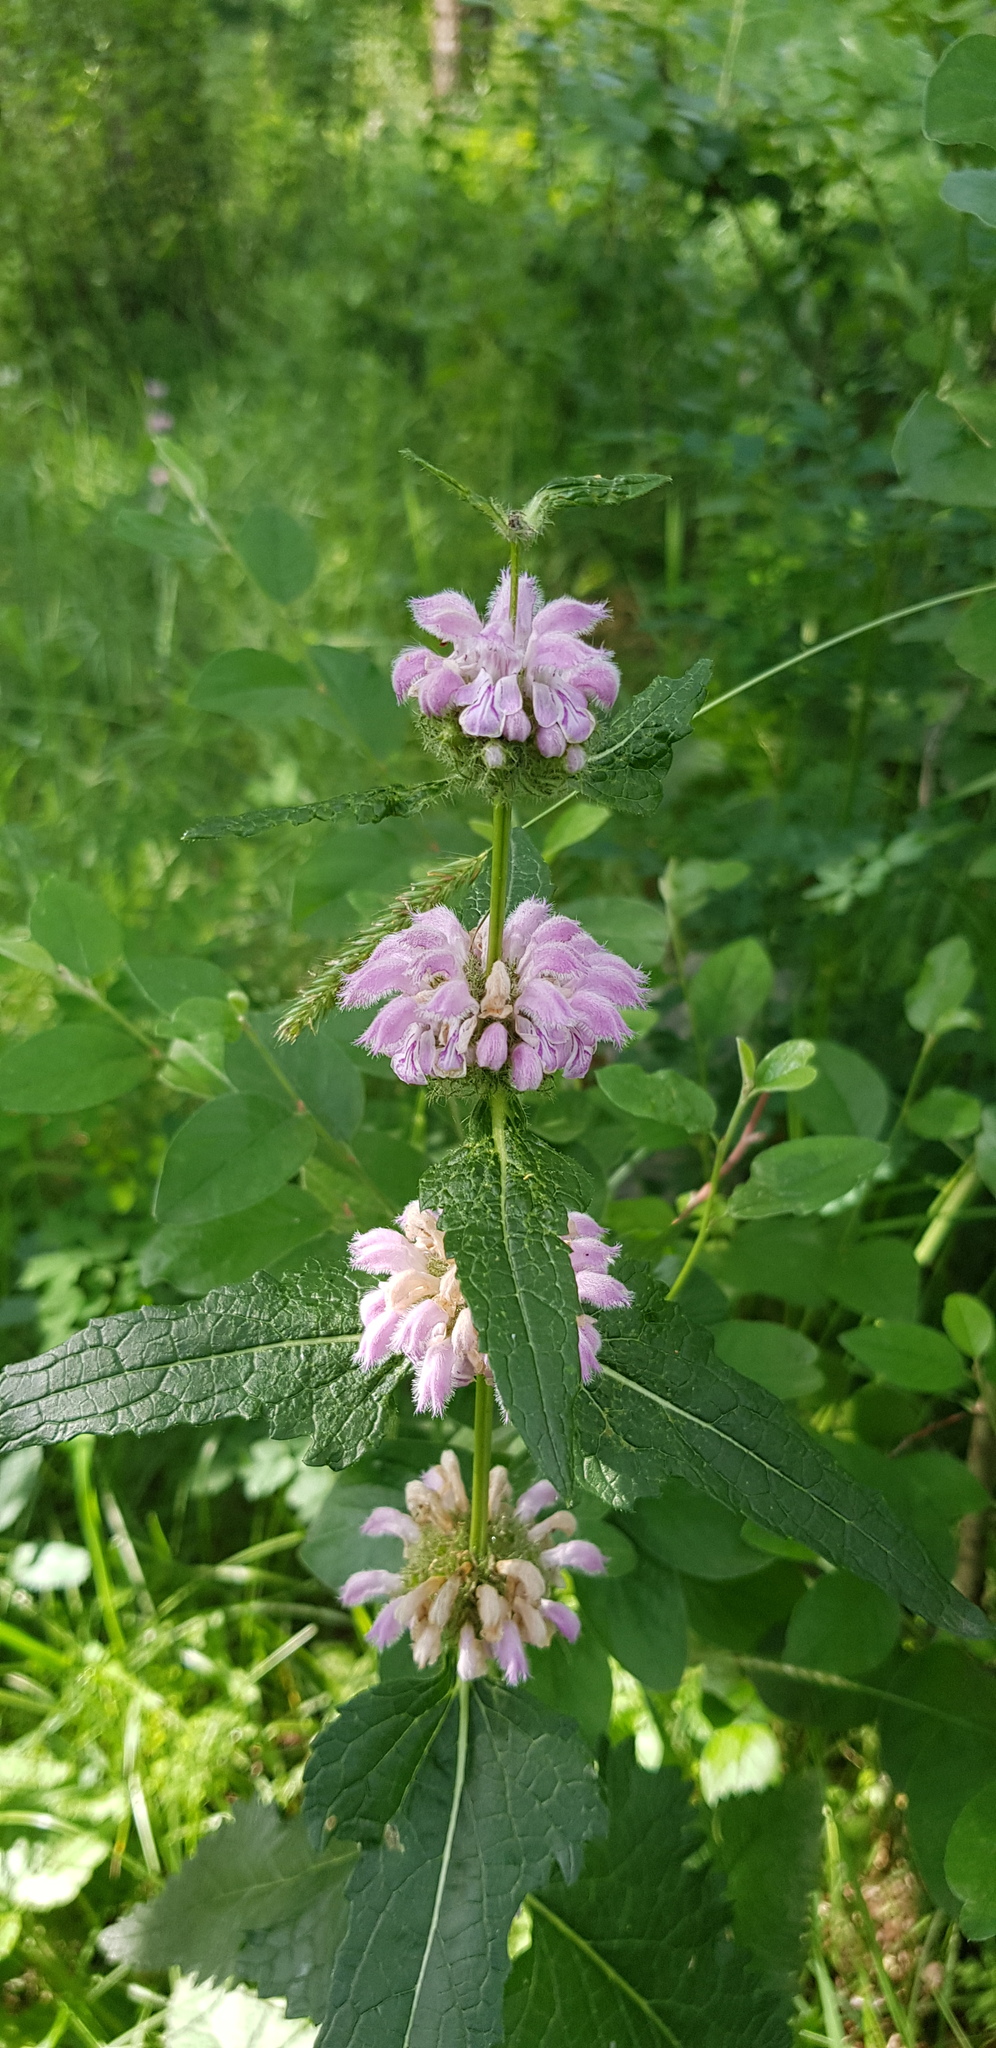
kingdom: Plantae
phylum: Tracheophyta
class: Magnoliopsida
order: Lamiales
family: Lamiaceae
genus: Phlomoides
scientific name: Phlomoides tuberosa
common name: Tuberous jerusalem sage
